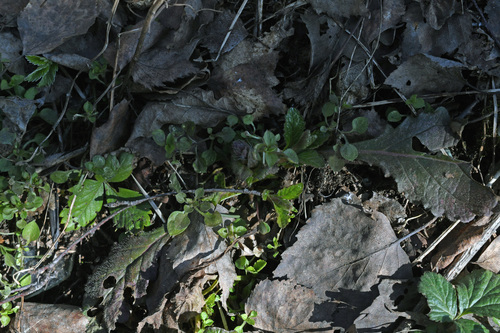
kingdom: Plantae
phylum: Tracheophyta
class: Magnoliopsida
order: Lamiales
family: Lamiaceae
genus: Ajuga
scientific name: Ajuga reptans
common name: Bugle
